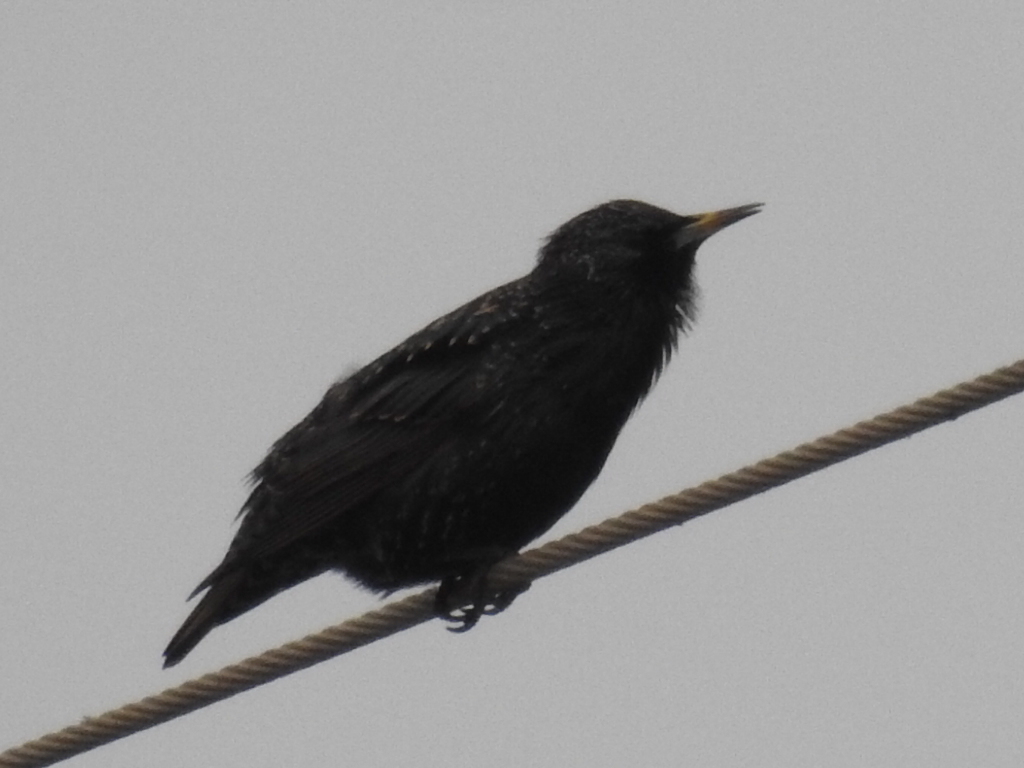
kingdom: Animalia
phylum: Chordata
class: Aves
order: Passeriformes
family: Sturnidae
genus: Sturnus
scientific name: Sturnus vulgaris
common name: Common starling
